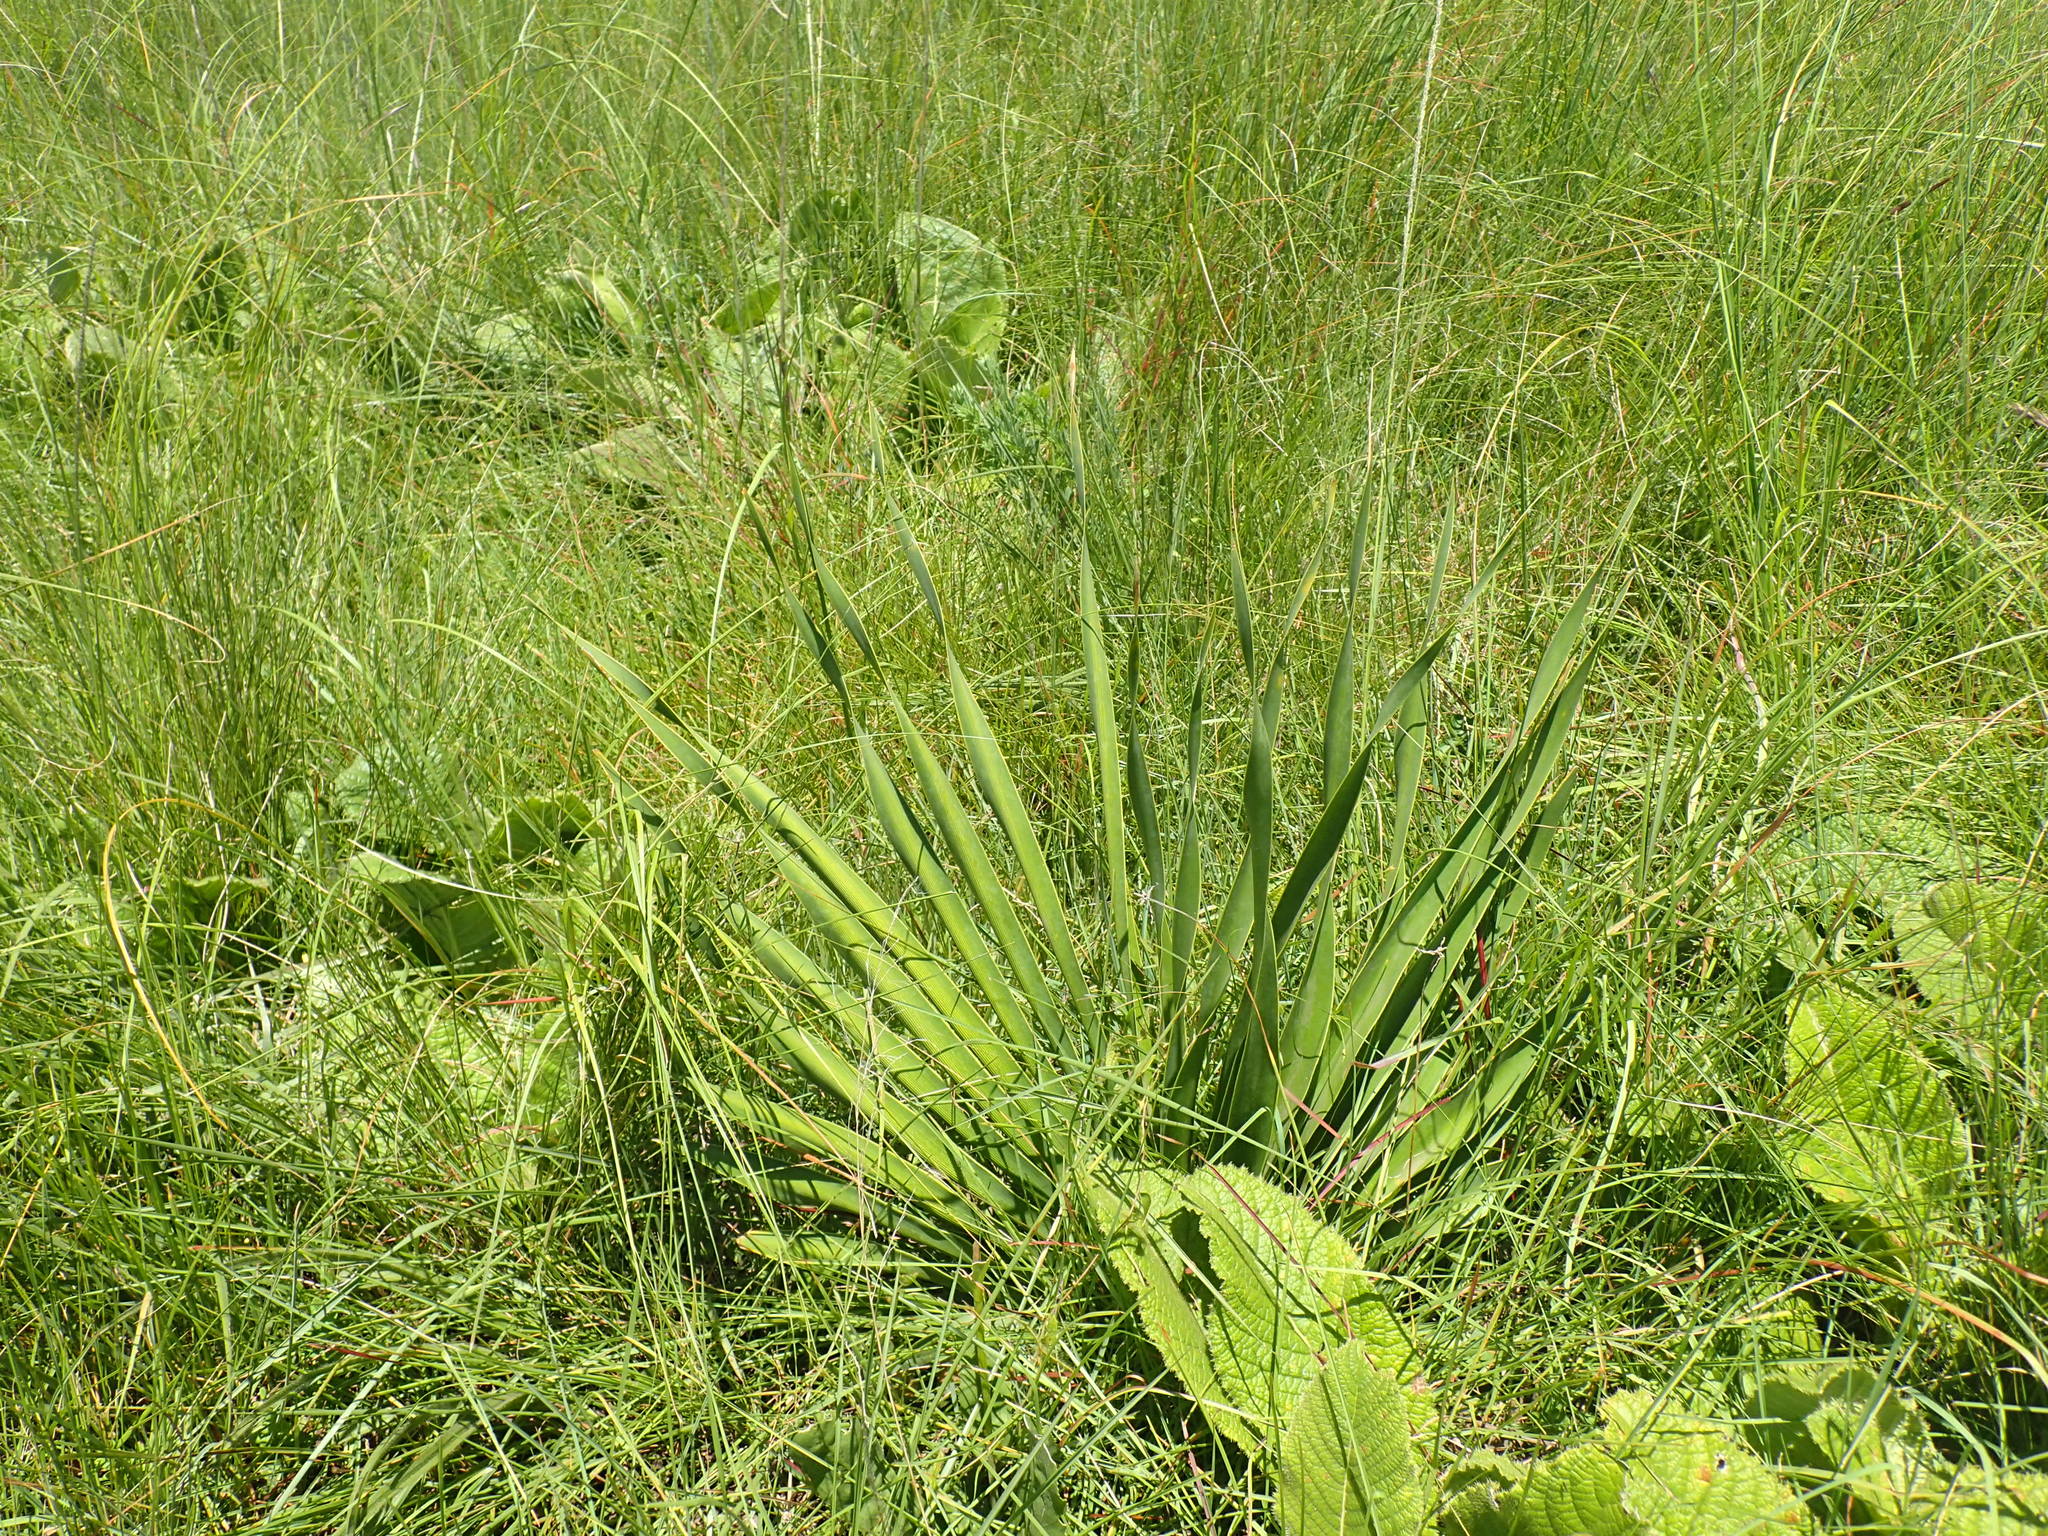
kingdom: Plantae
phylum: Tracheophyta
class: Liliopsida
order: Asparagales
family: Amaryllidaceae
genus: Boophone
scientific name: Boophone disticha
